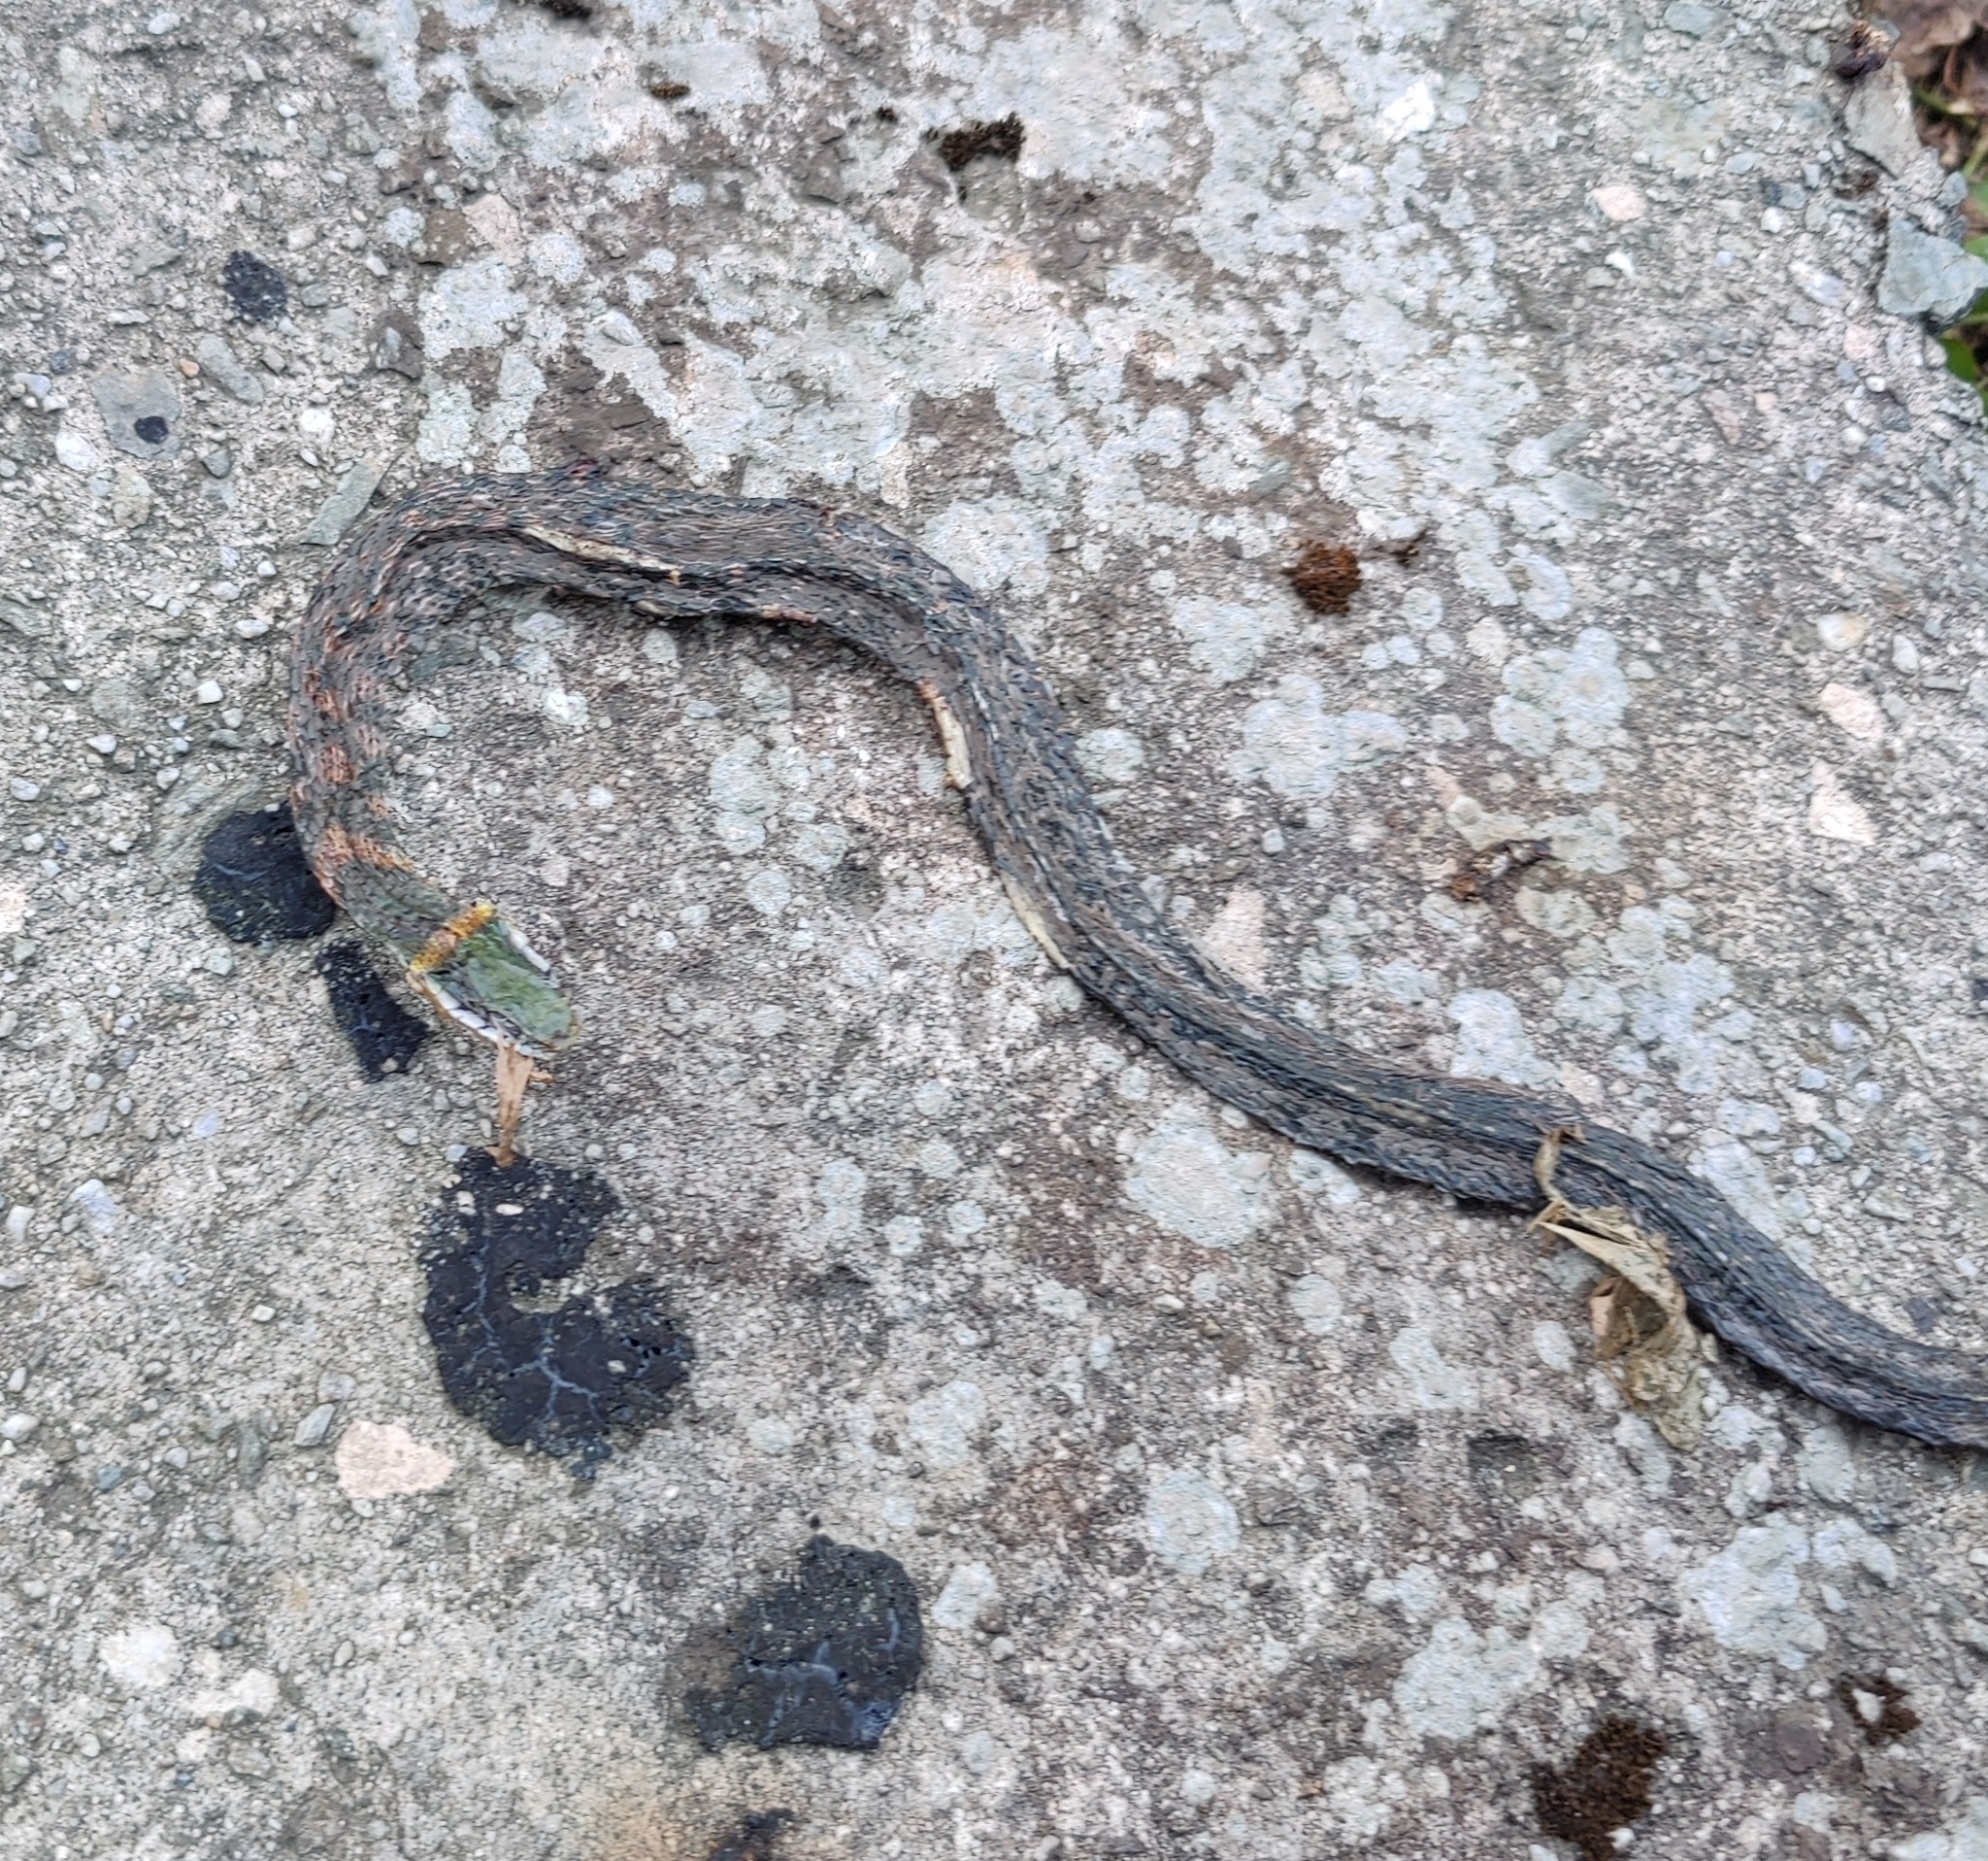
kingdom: Animalia
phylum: Chordata
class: Squamata
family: Colubridae
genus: Rhabdophis
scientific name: Rhabdophis himalayanus
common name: Orange-collared keelback
